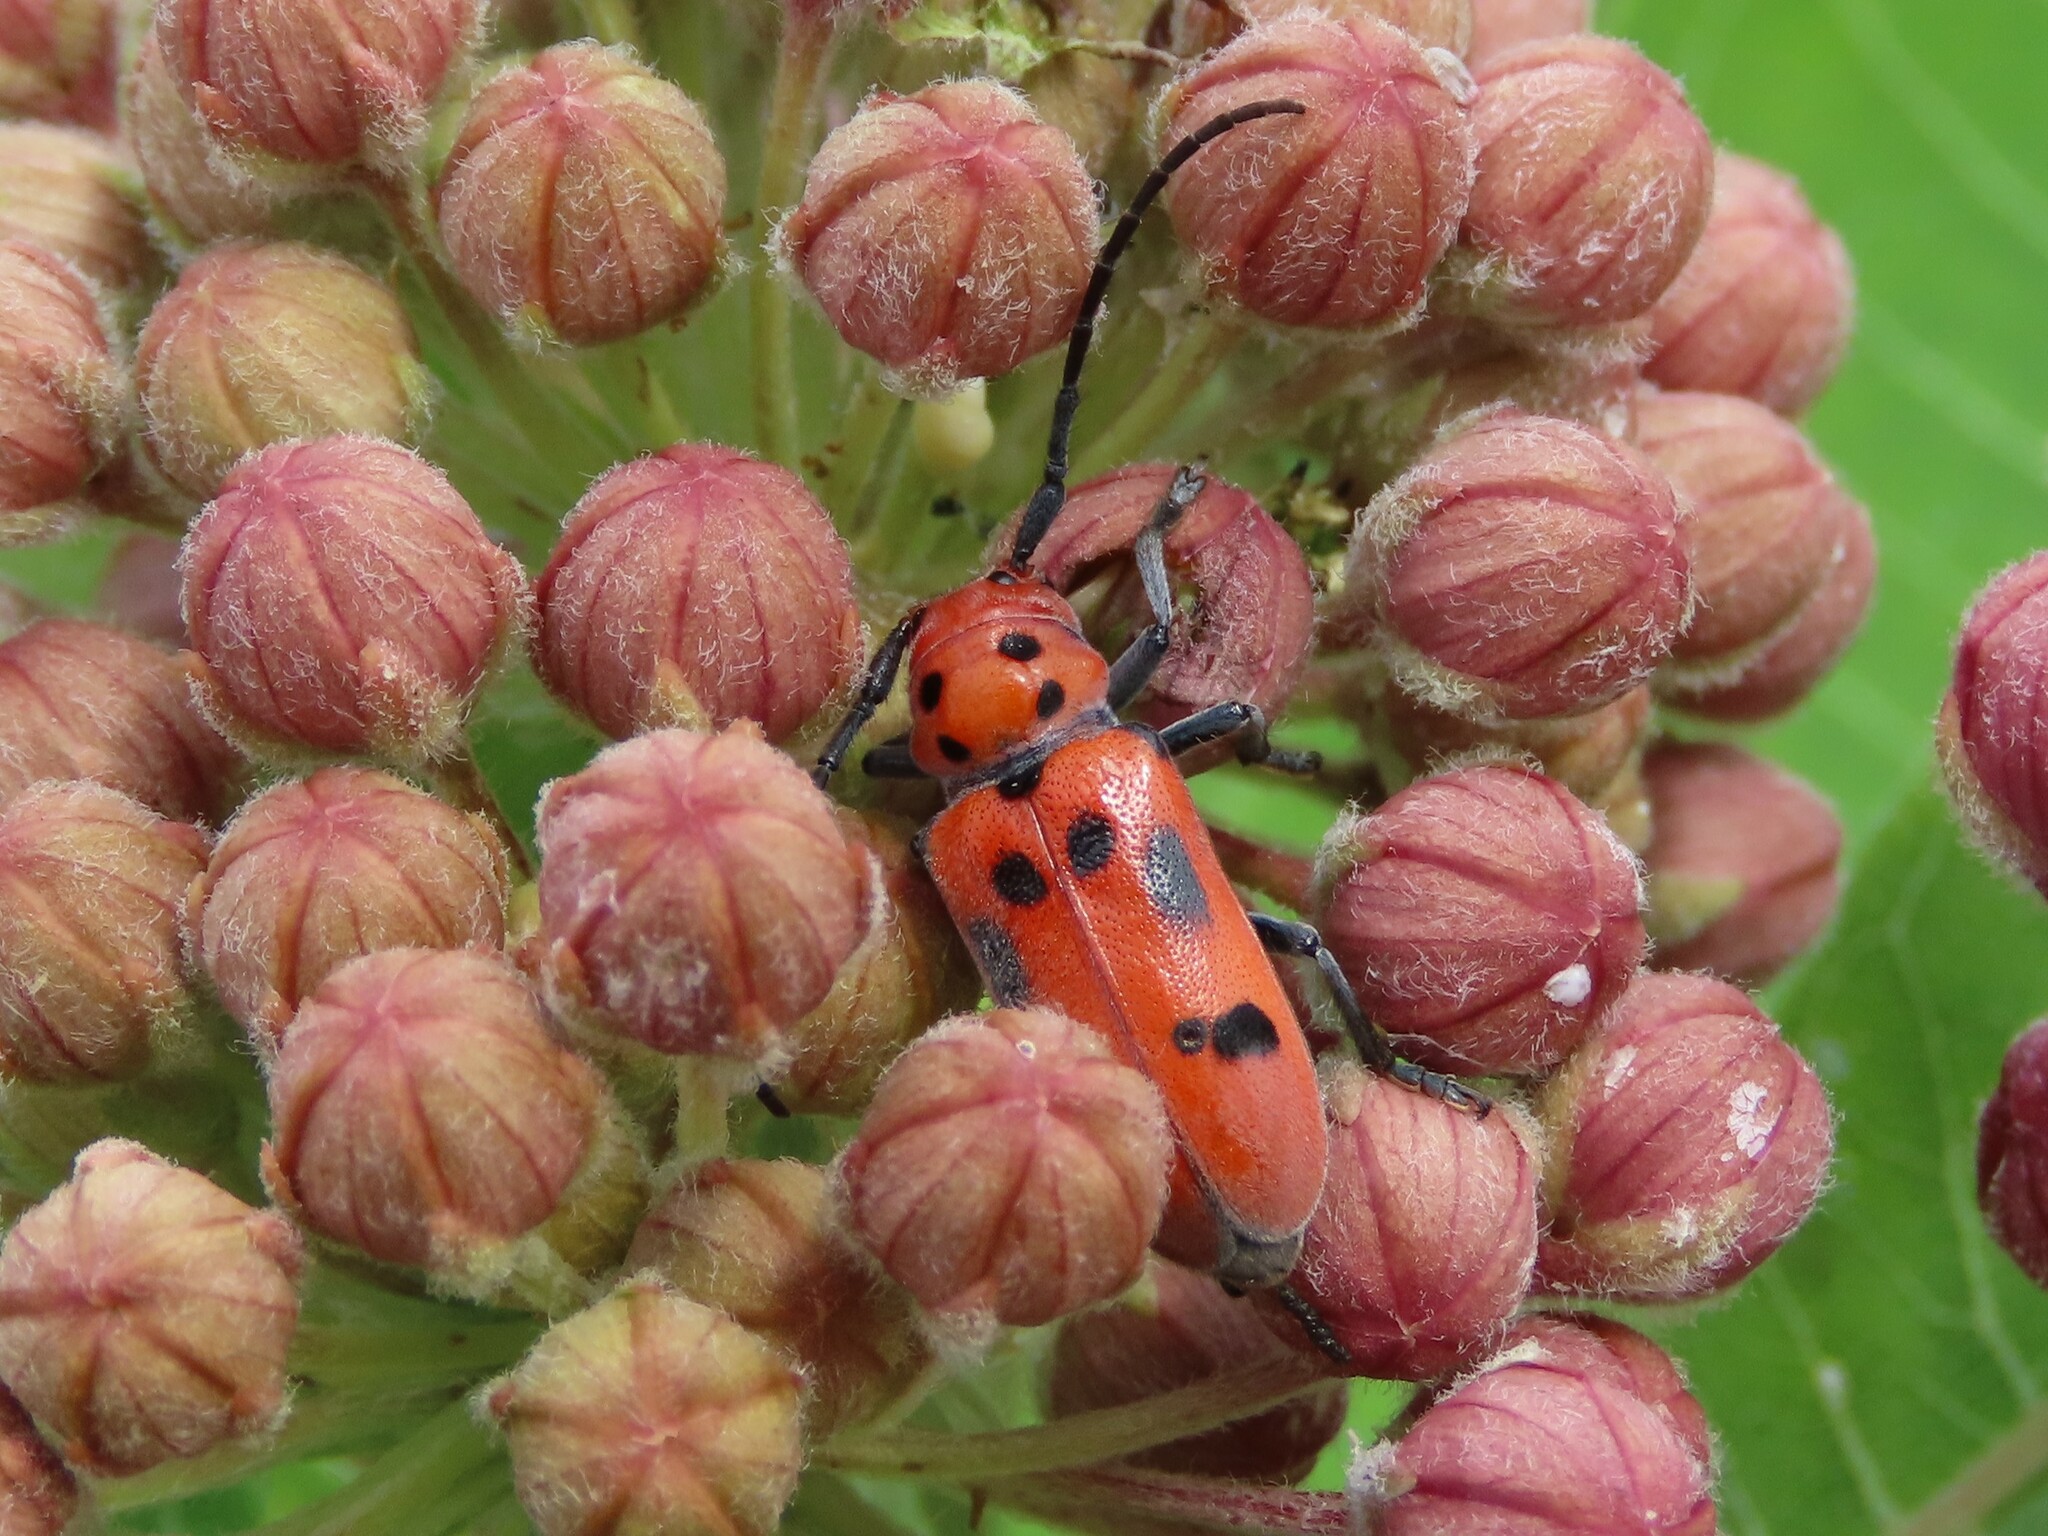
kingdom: Animalia
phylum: Arthropoda
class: Insecta
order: Coleoptera
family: Cerambycidae
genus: Tetraopes
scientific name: Tetraopes tetrophthalmus
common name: Red milkweed beetle
